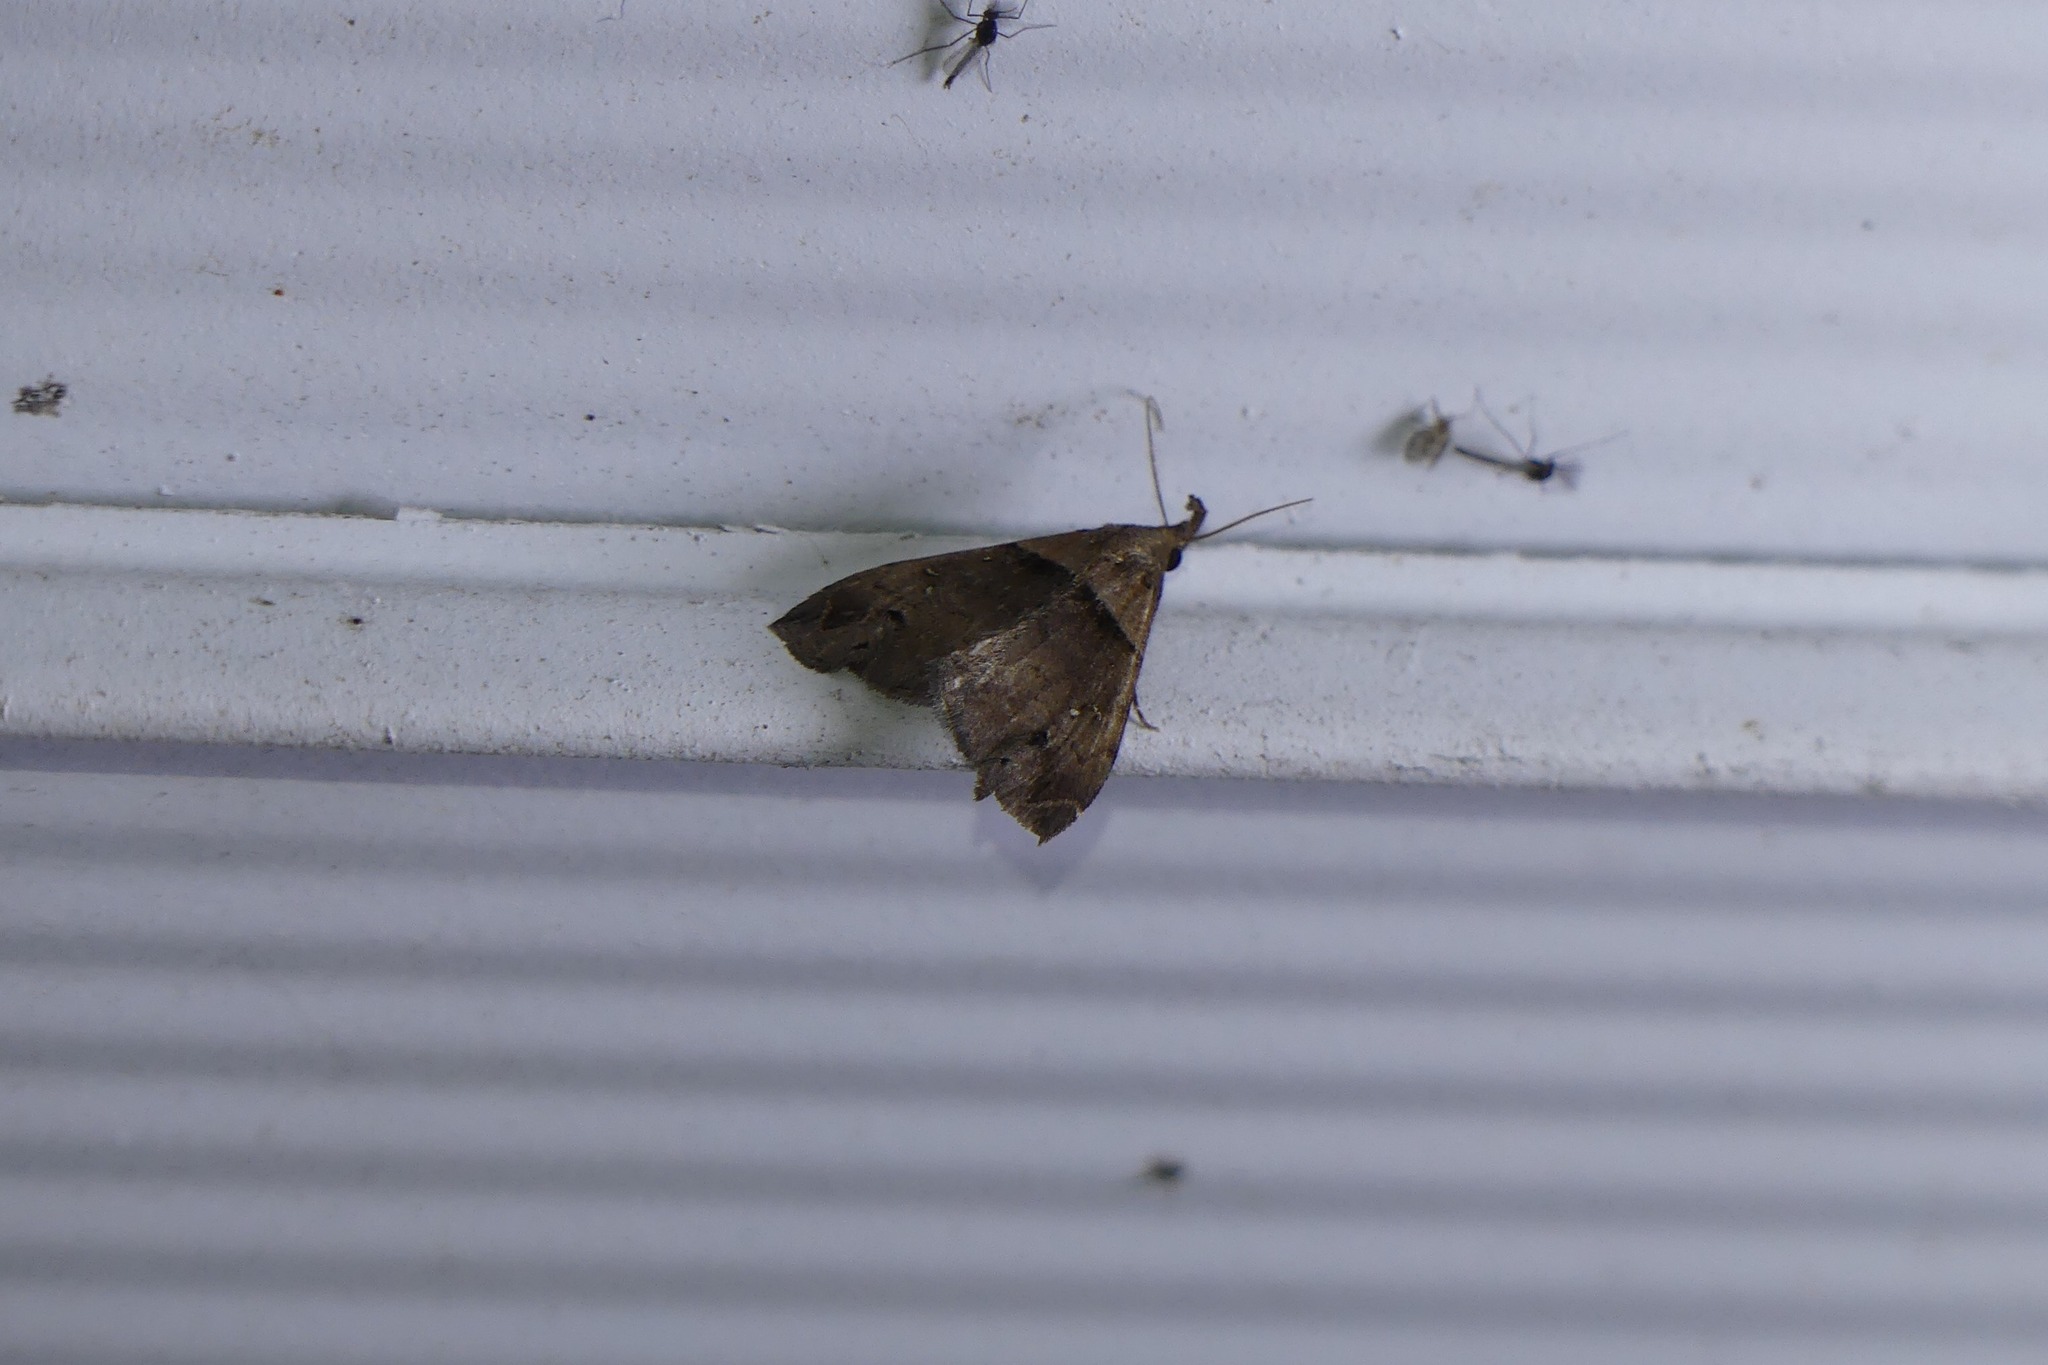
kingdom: Animalia
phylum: Arthropoda
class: Insecta
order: Lepidoptera
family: Erebidae
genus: Lascoria
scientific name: Lascoria ambigualis
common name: Ambiguous moth
